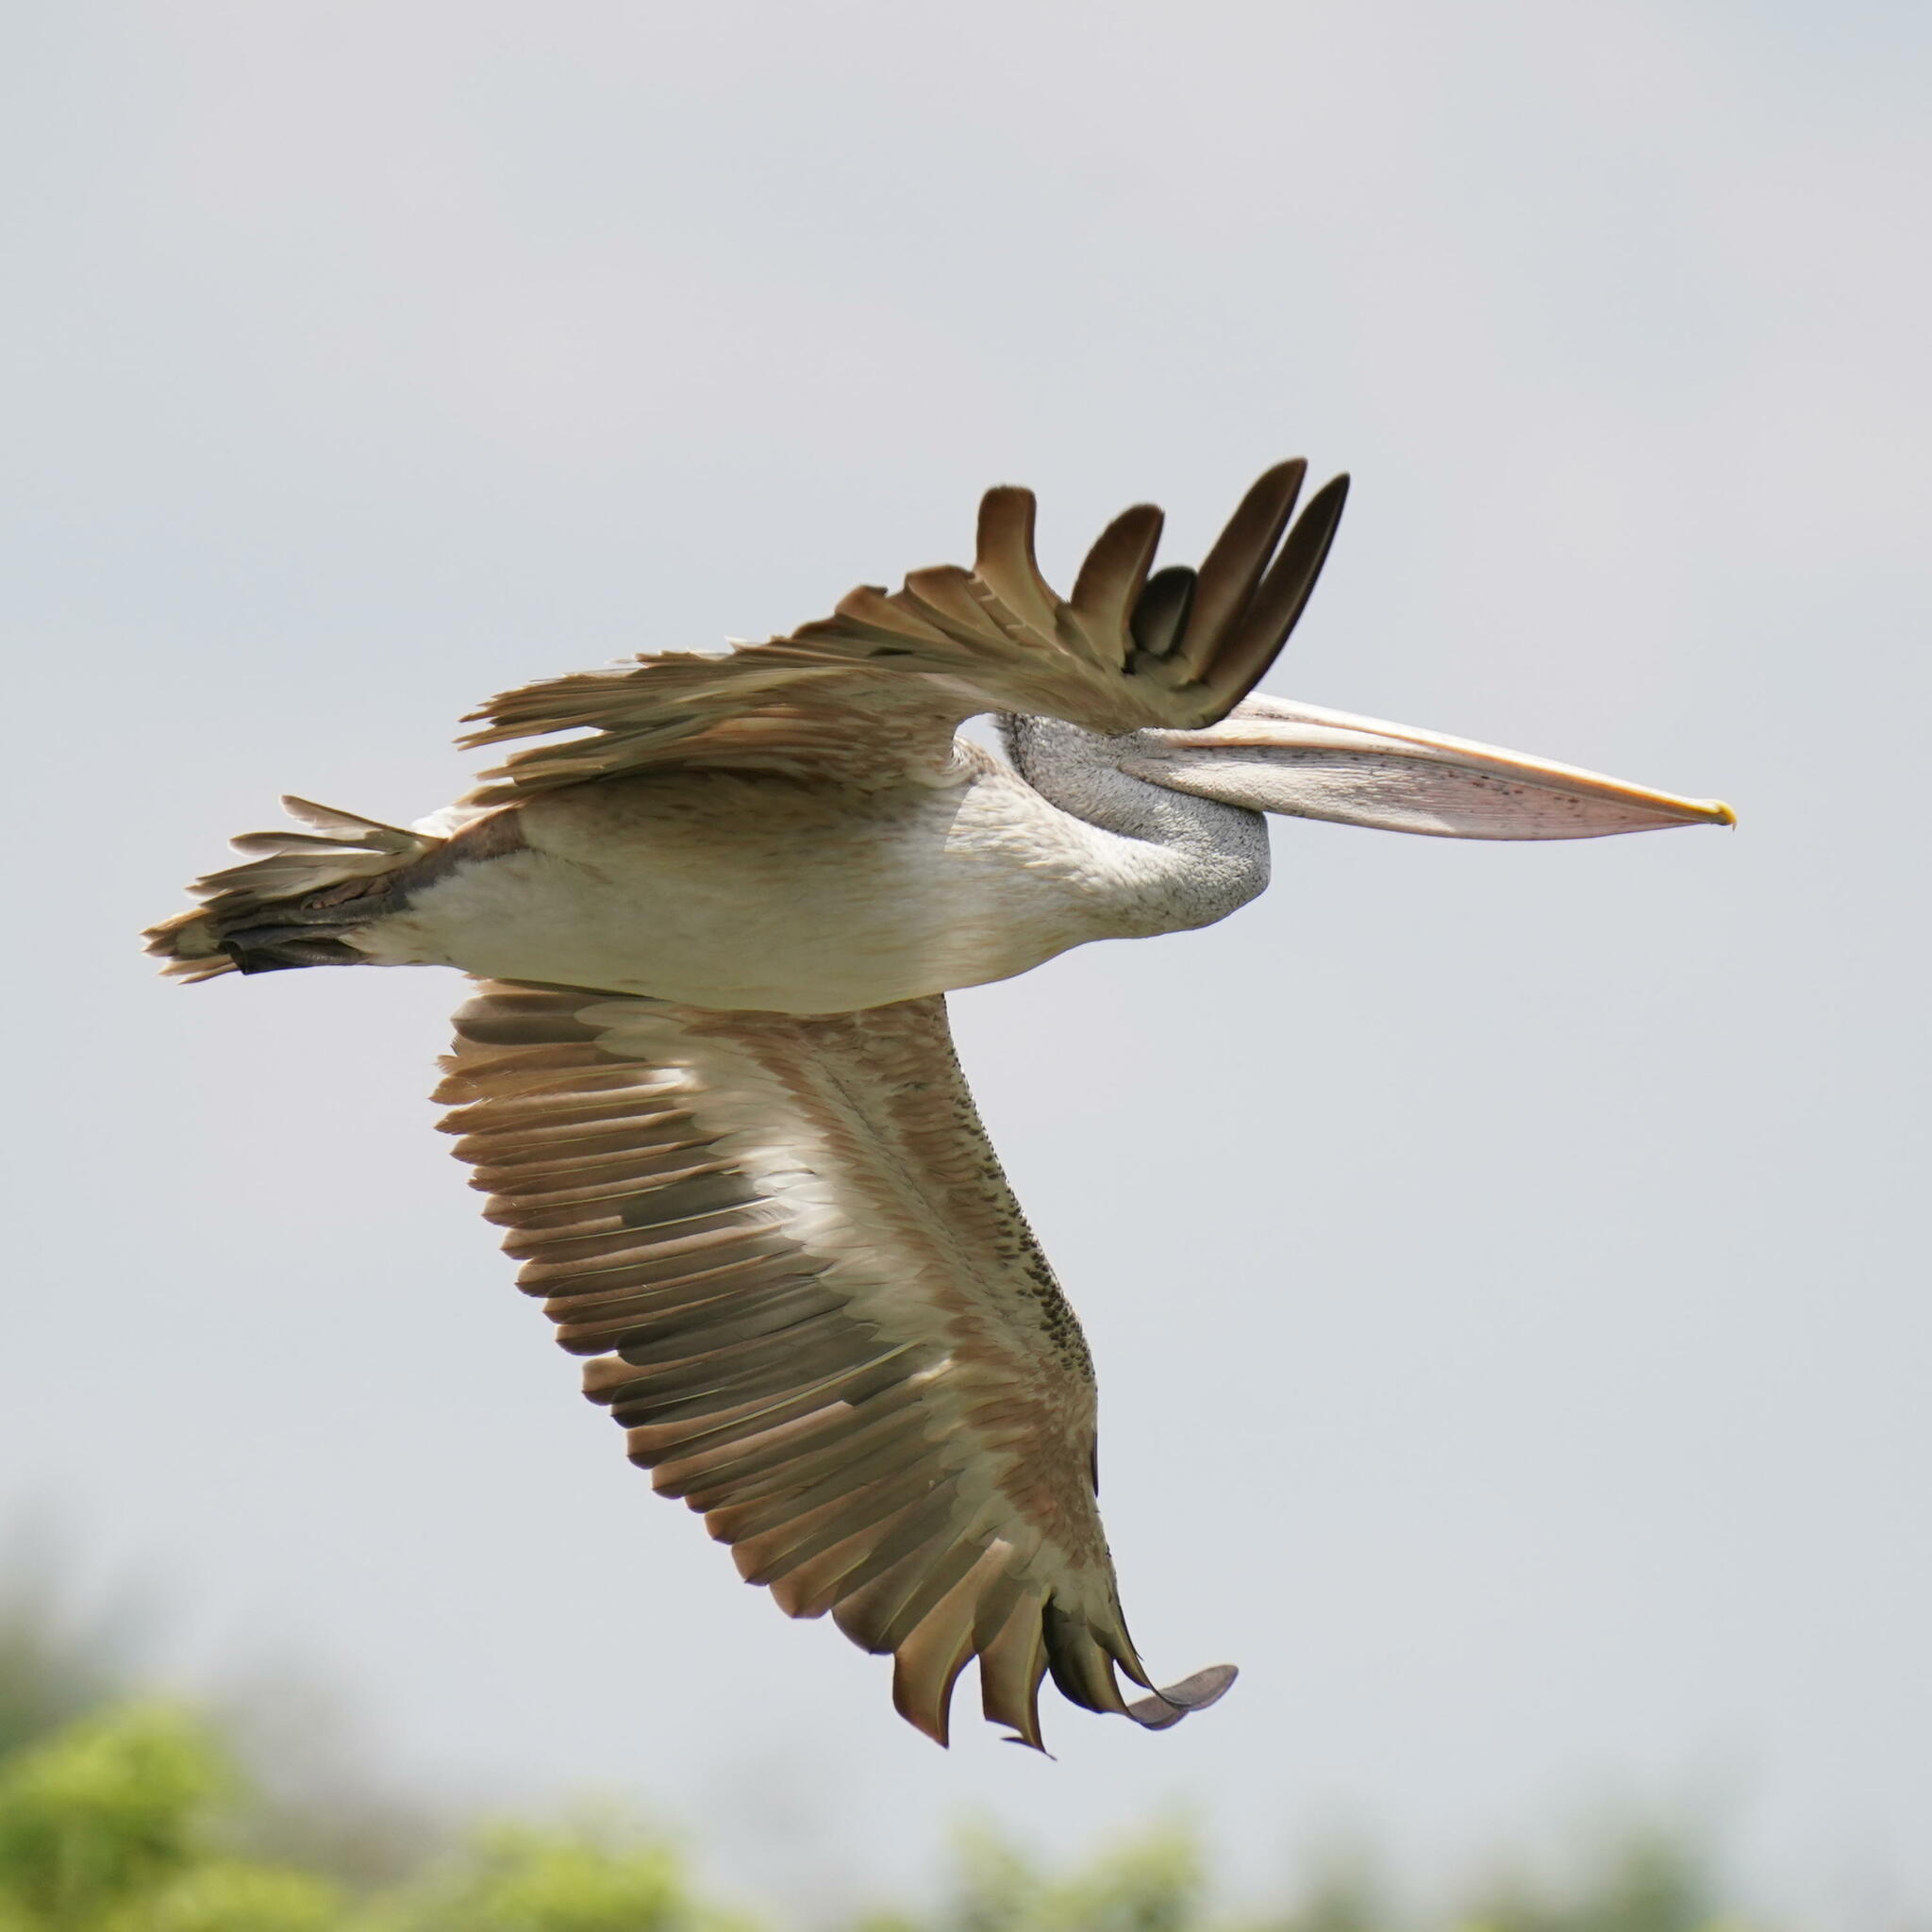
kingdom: Animalia
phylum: Chordata
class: Aves
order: Pelecaniformes
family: Pelecanidae
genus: Pelecanus
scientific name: Pelecanus philippensis
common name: Spot-billed pelican
